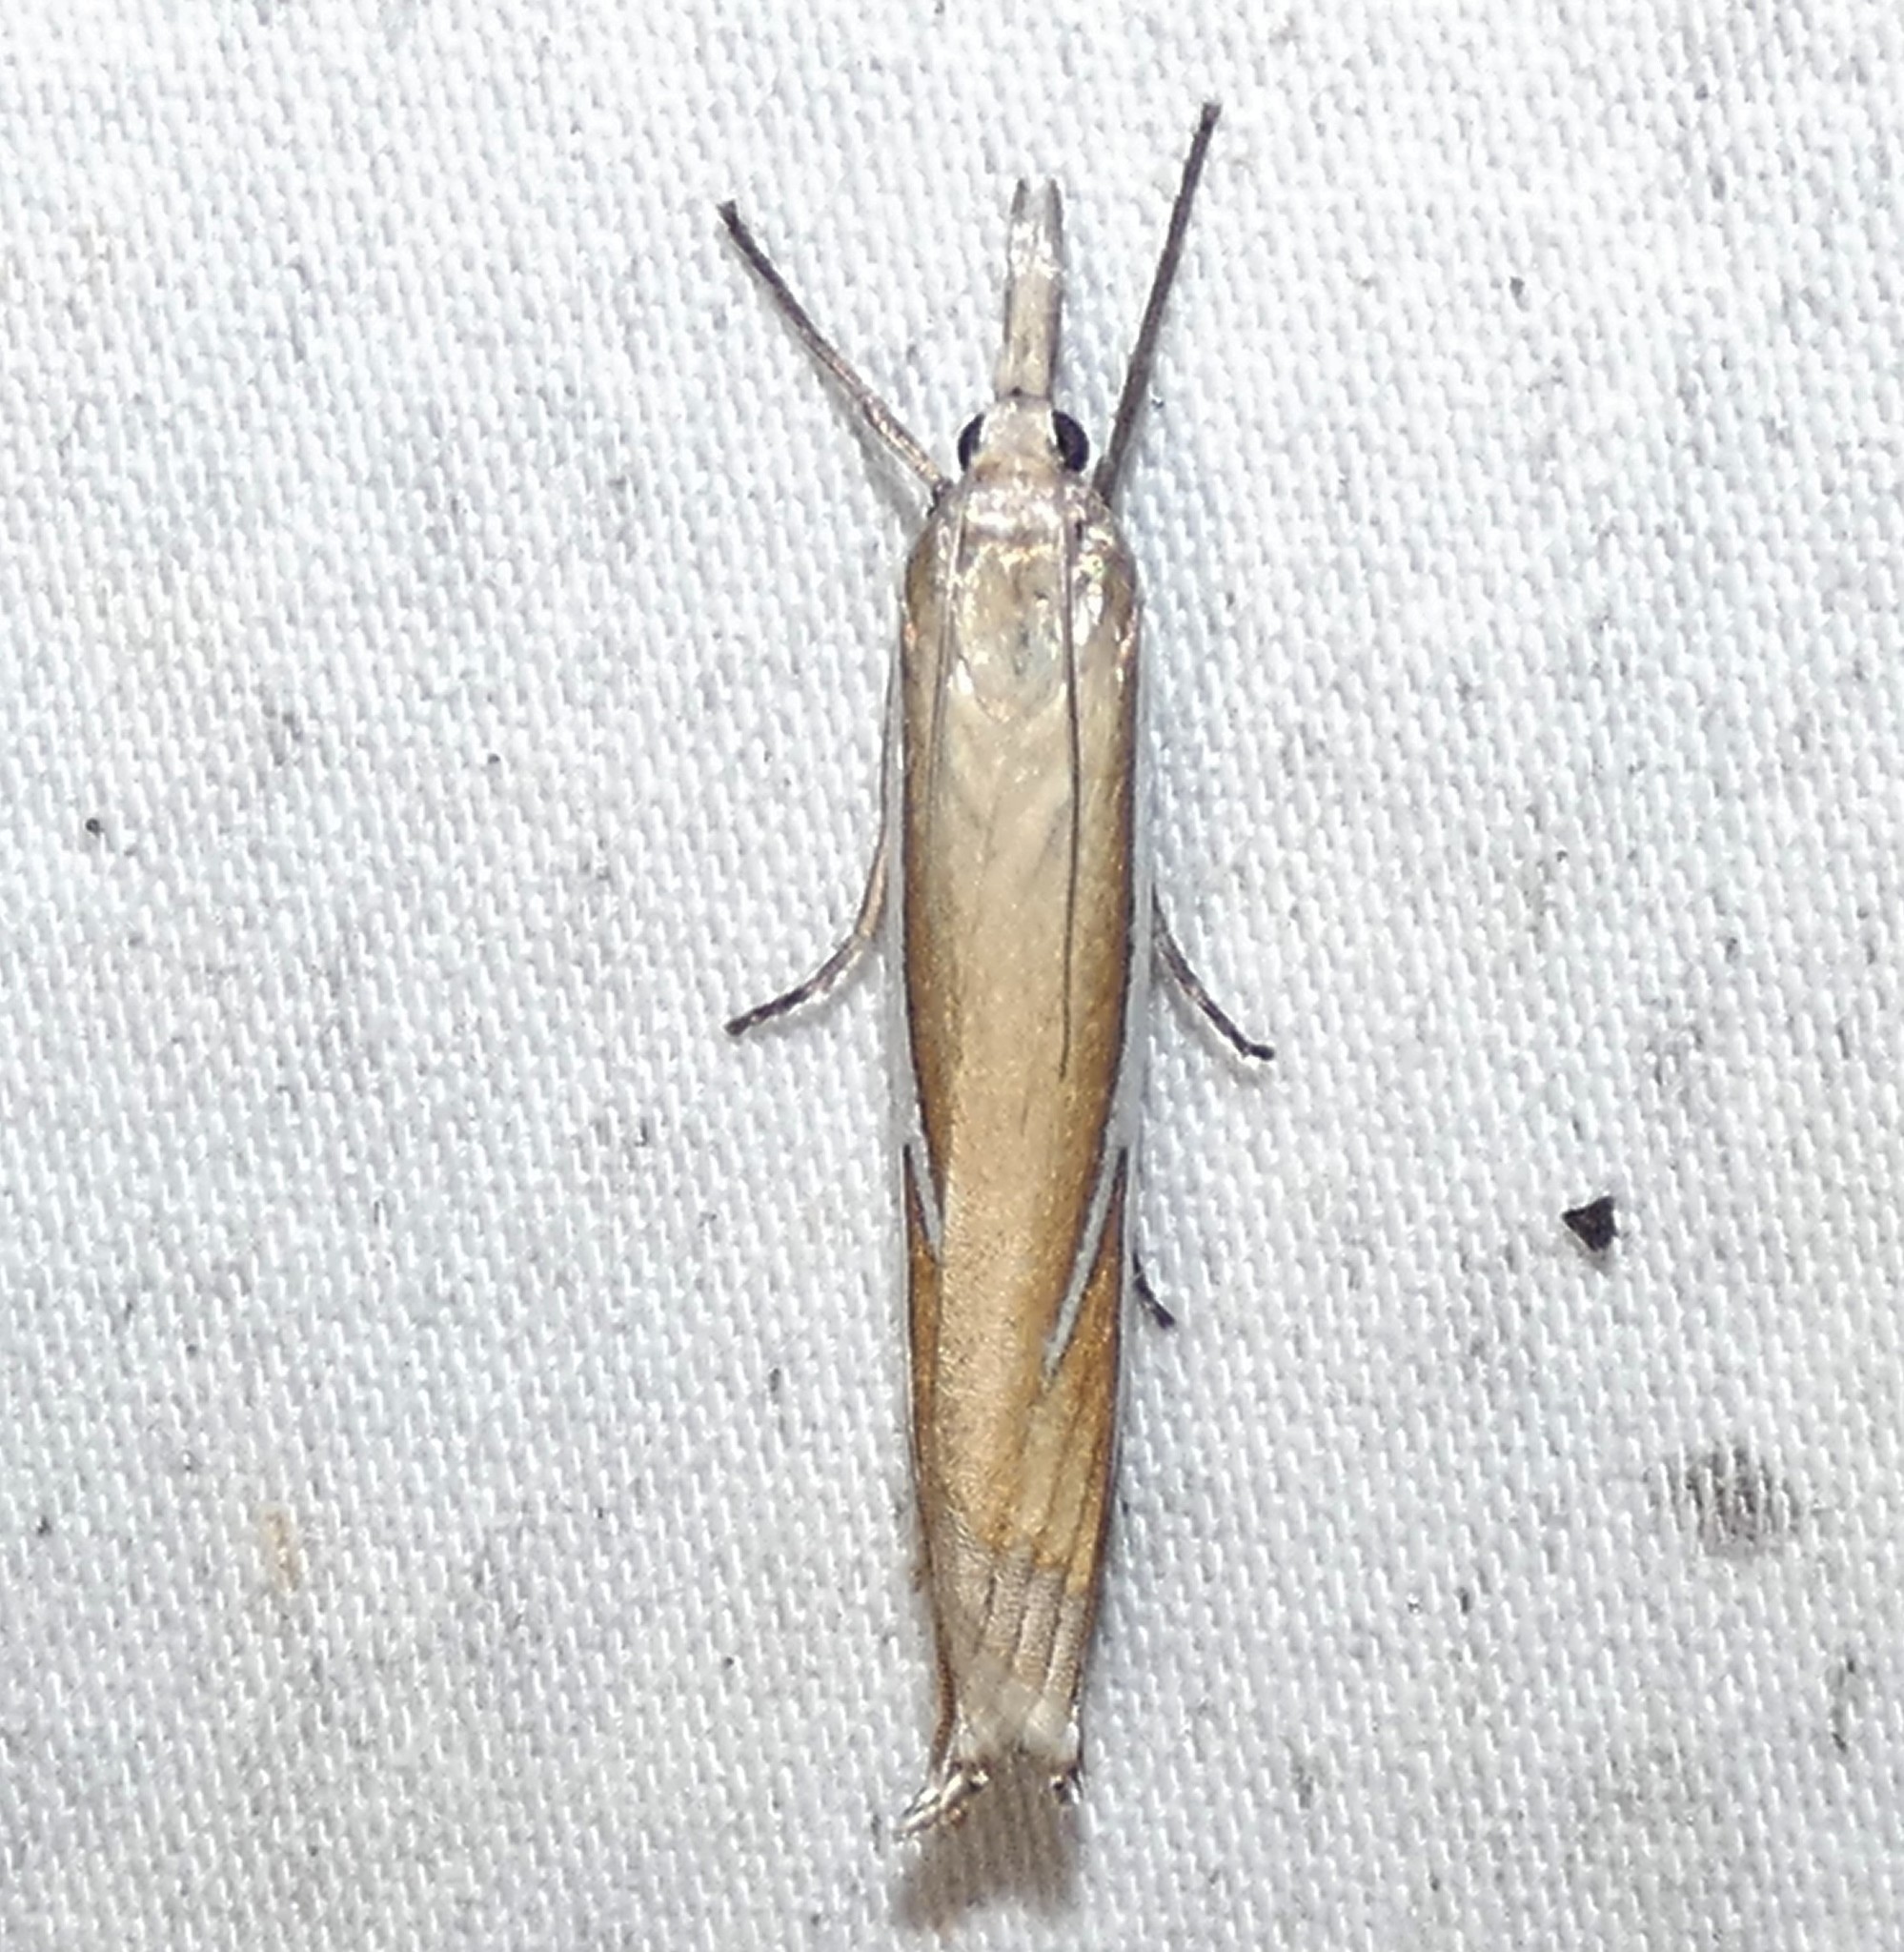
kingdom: Animalia
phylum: Arthropoda
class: Insecta
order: Lepidoptera
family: Crambidae
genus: Crambus
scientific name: Crambus satrapellus
